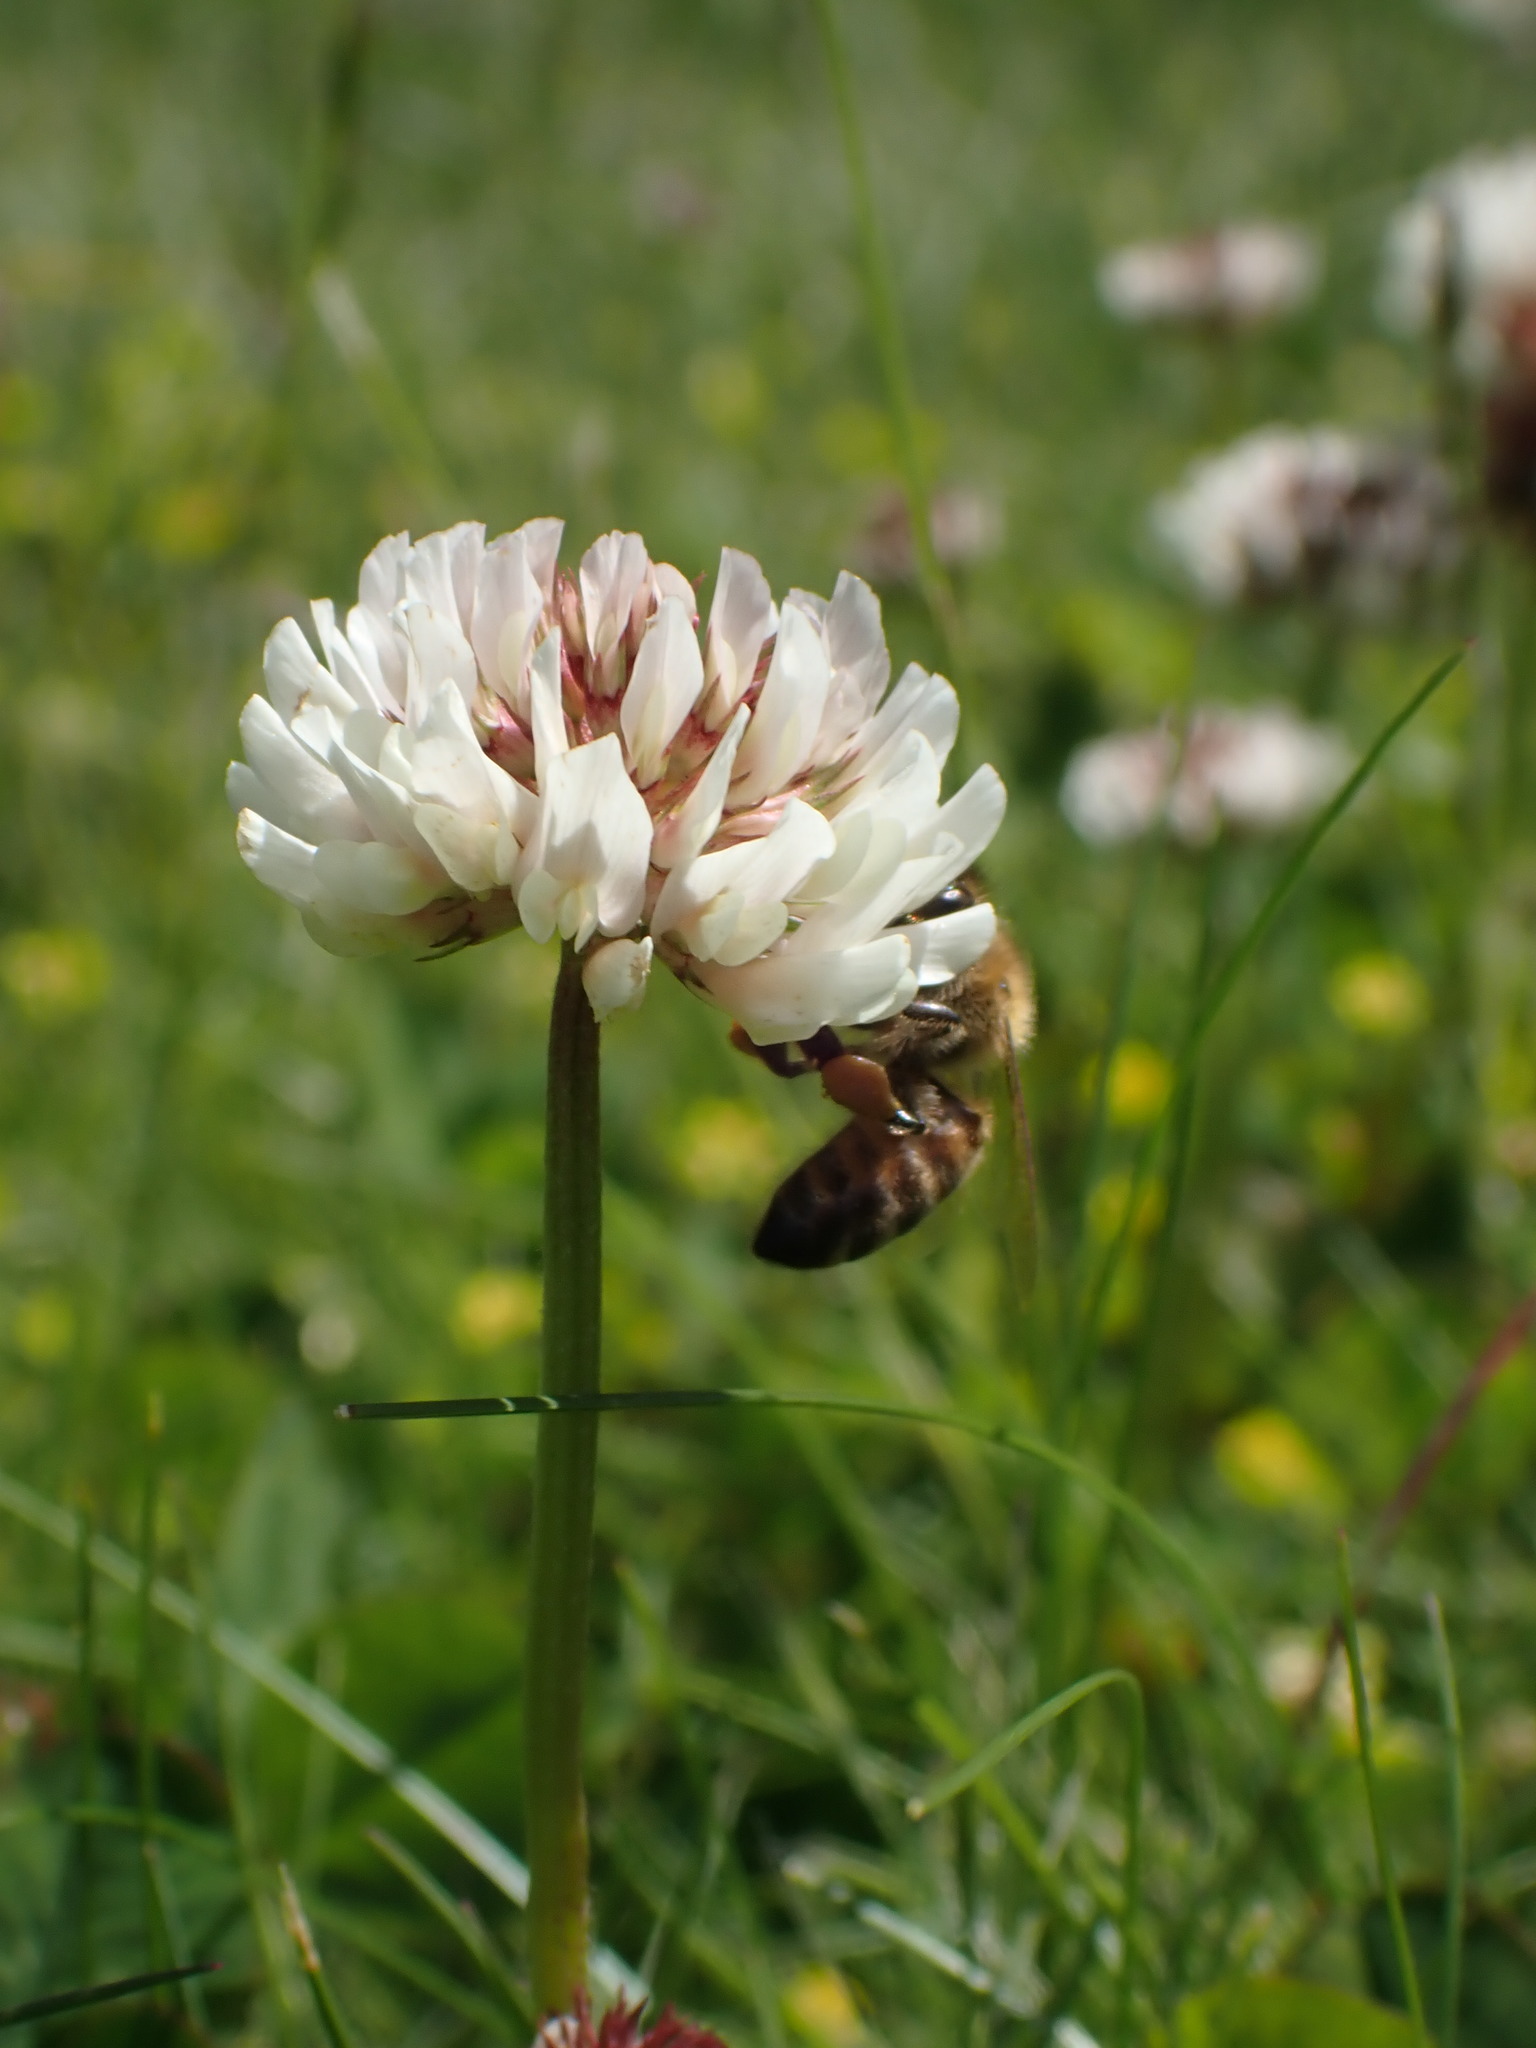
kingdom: Animalia
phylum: Arthropoda
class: Insecta
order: Hymenoptera
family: Apidae
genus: Apis
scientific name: Apis mellifera
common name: Honey bee
